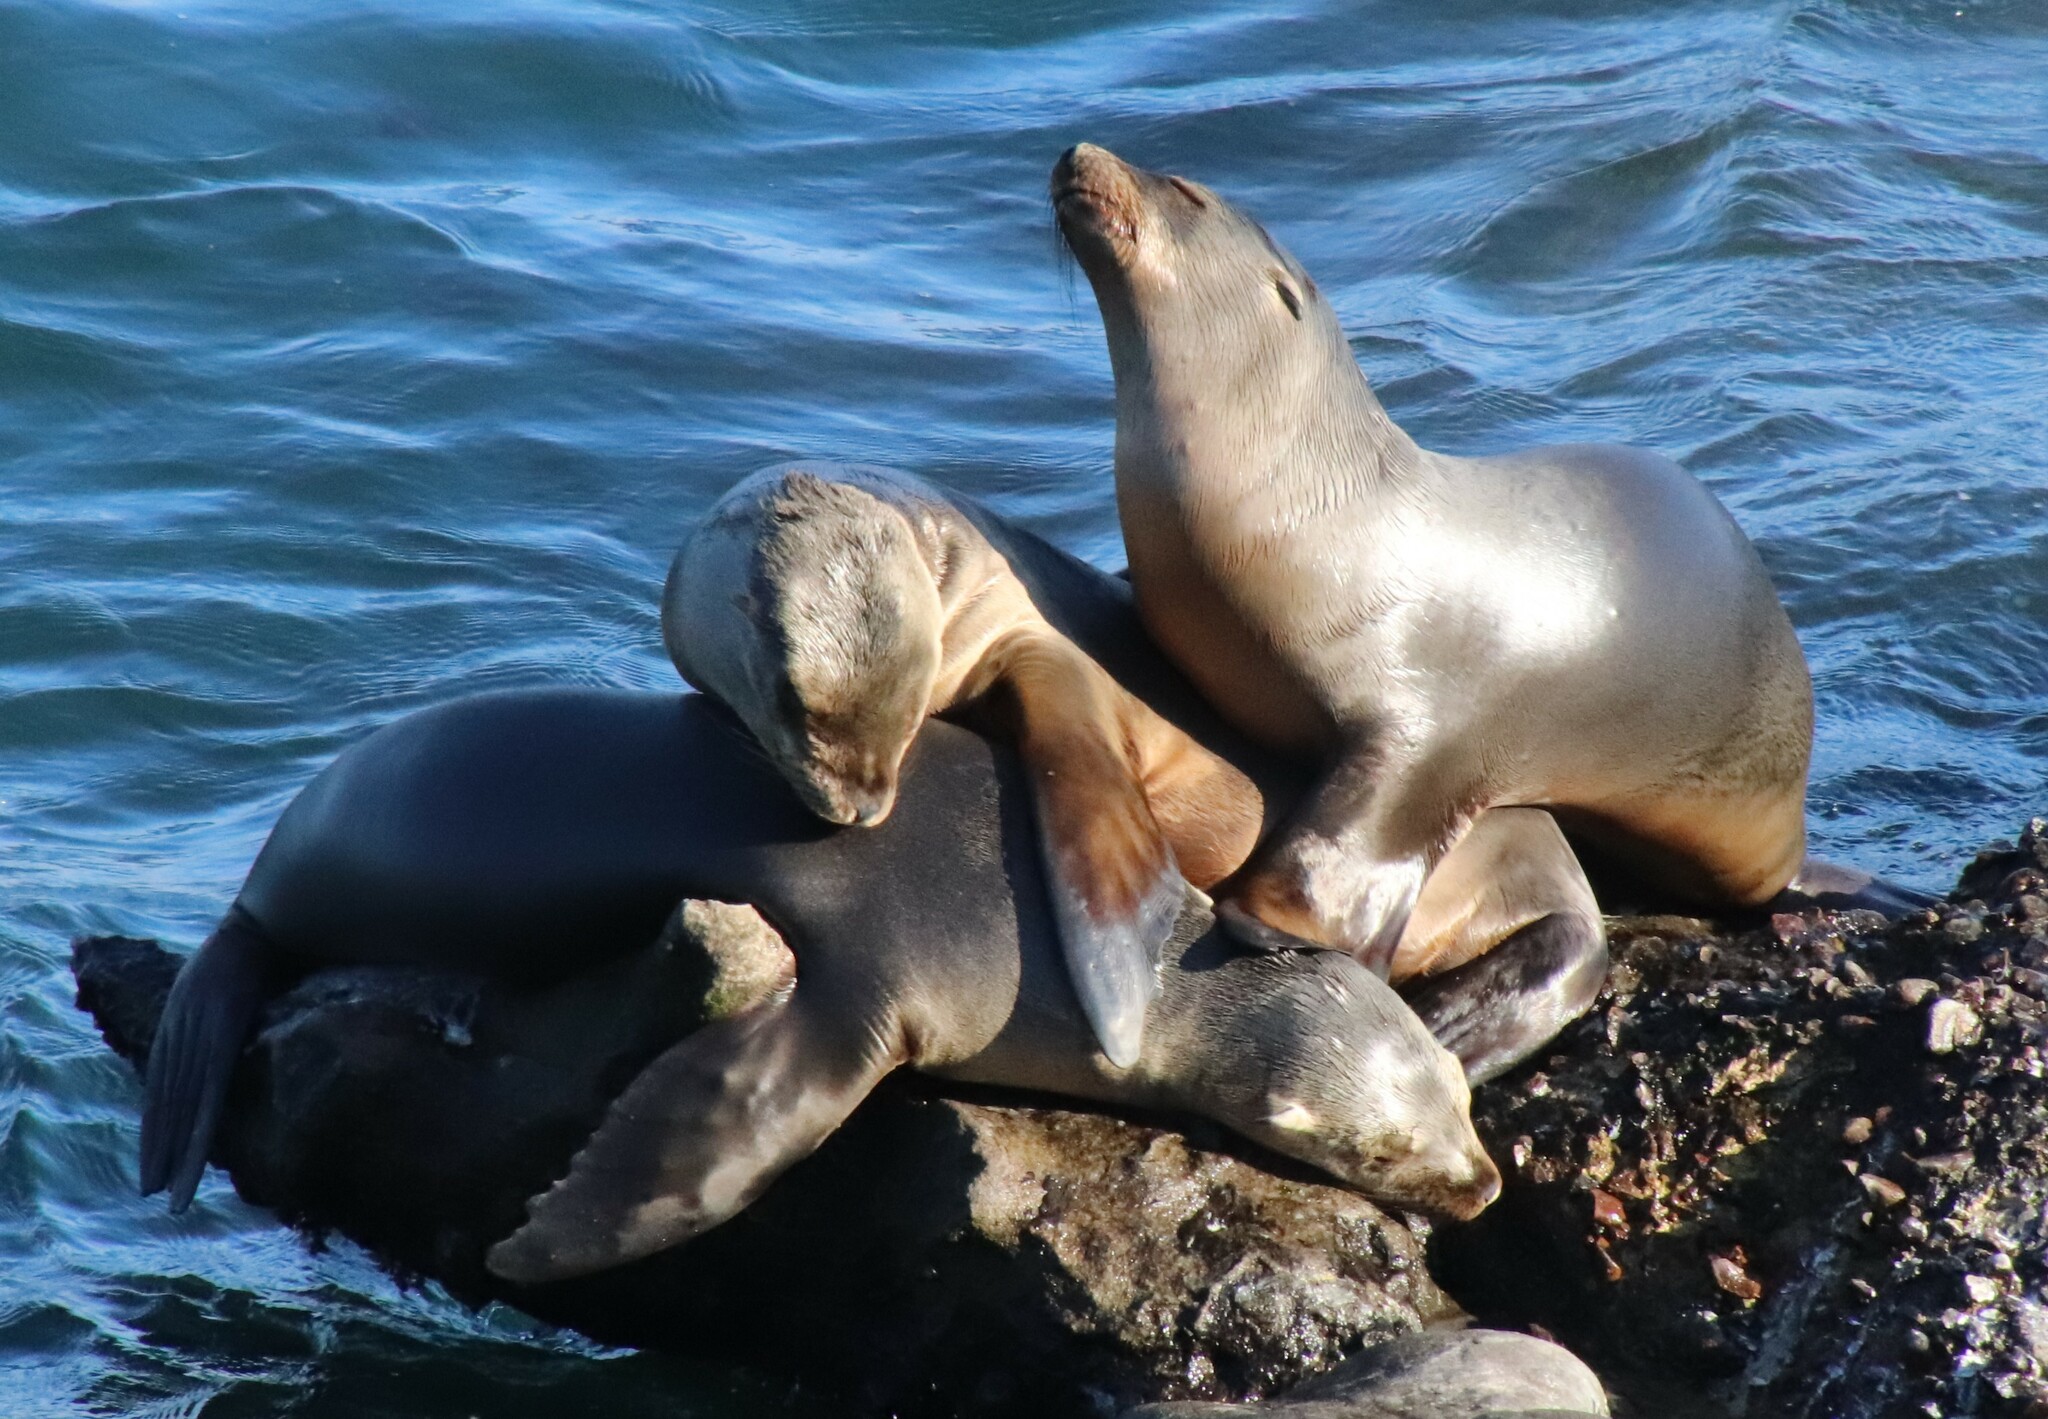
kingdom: Animalia
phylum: Chordata
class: Mammalia
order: Carnivora
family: Otariidae
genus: Zalophus
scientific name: Zalophus californianus
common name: California sea lion
